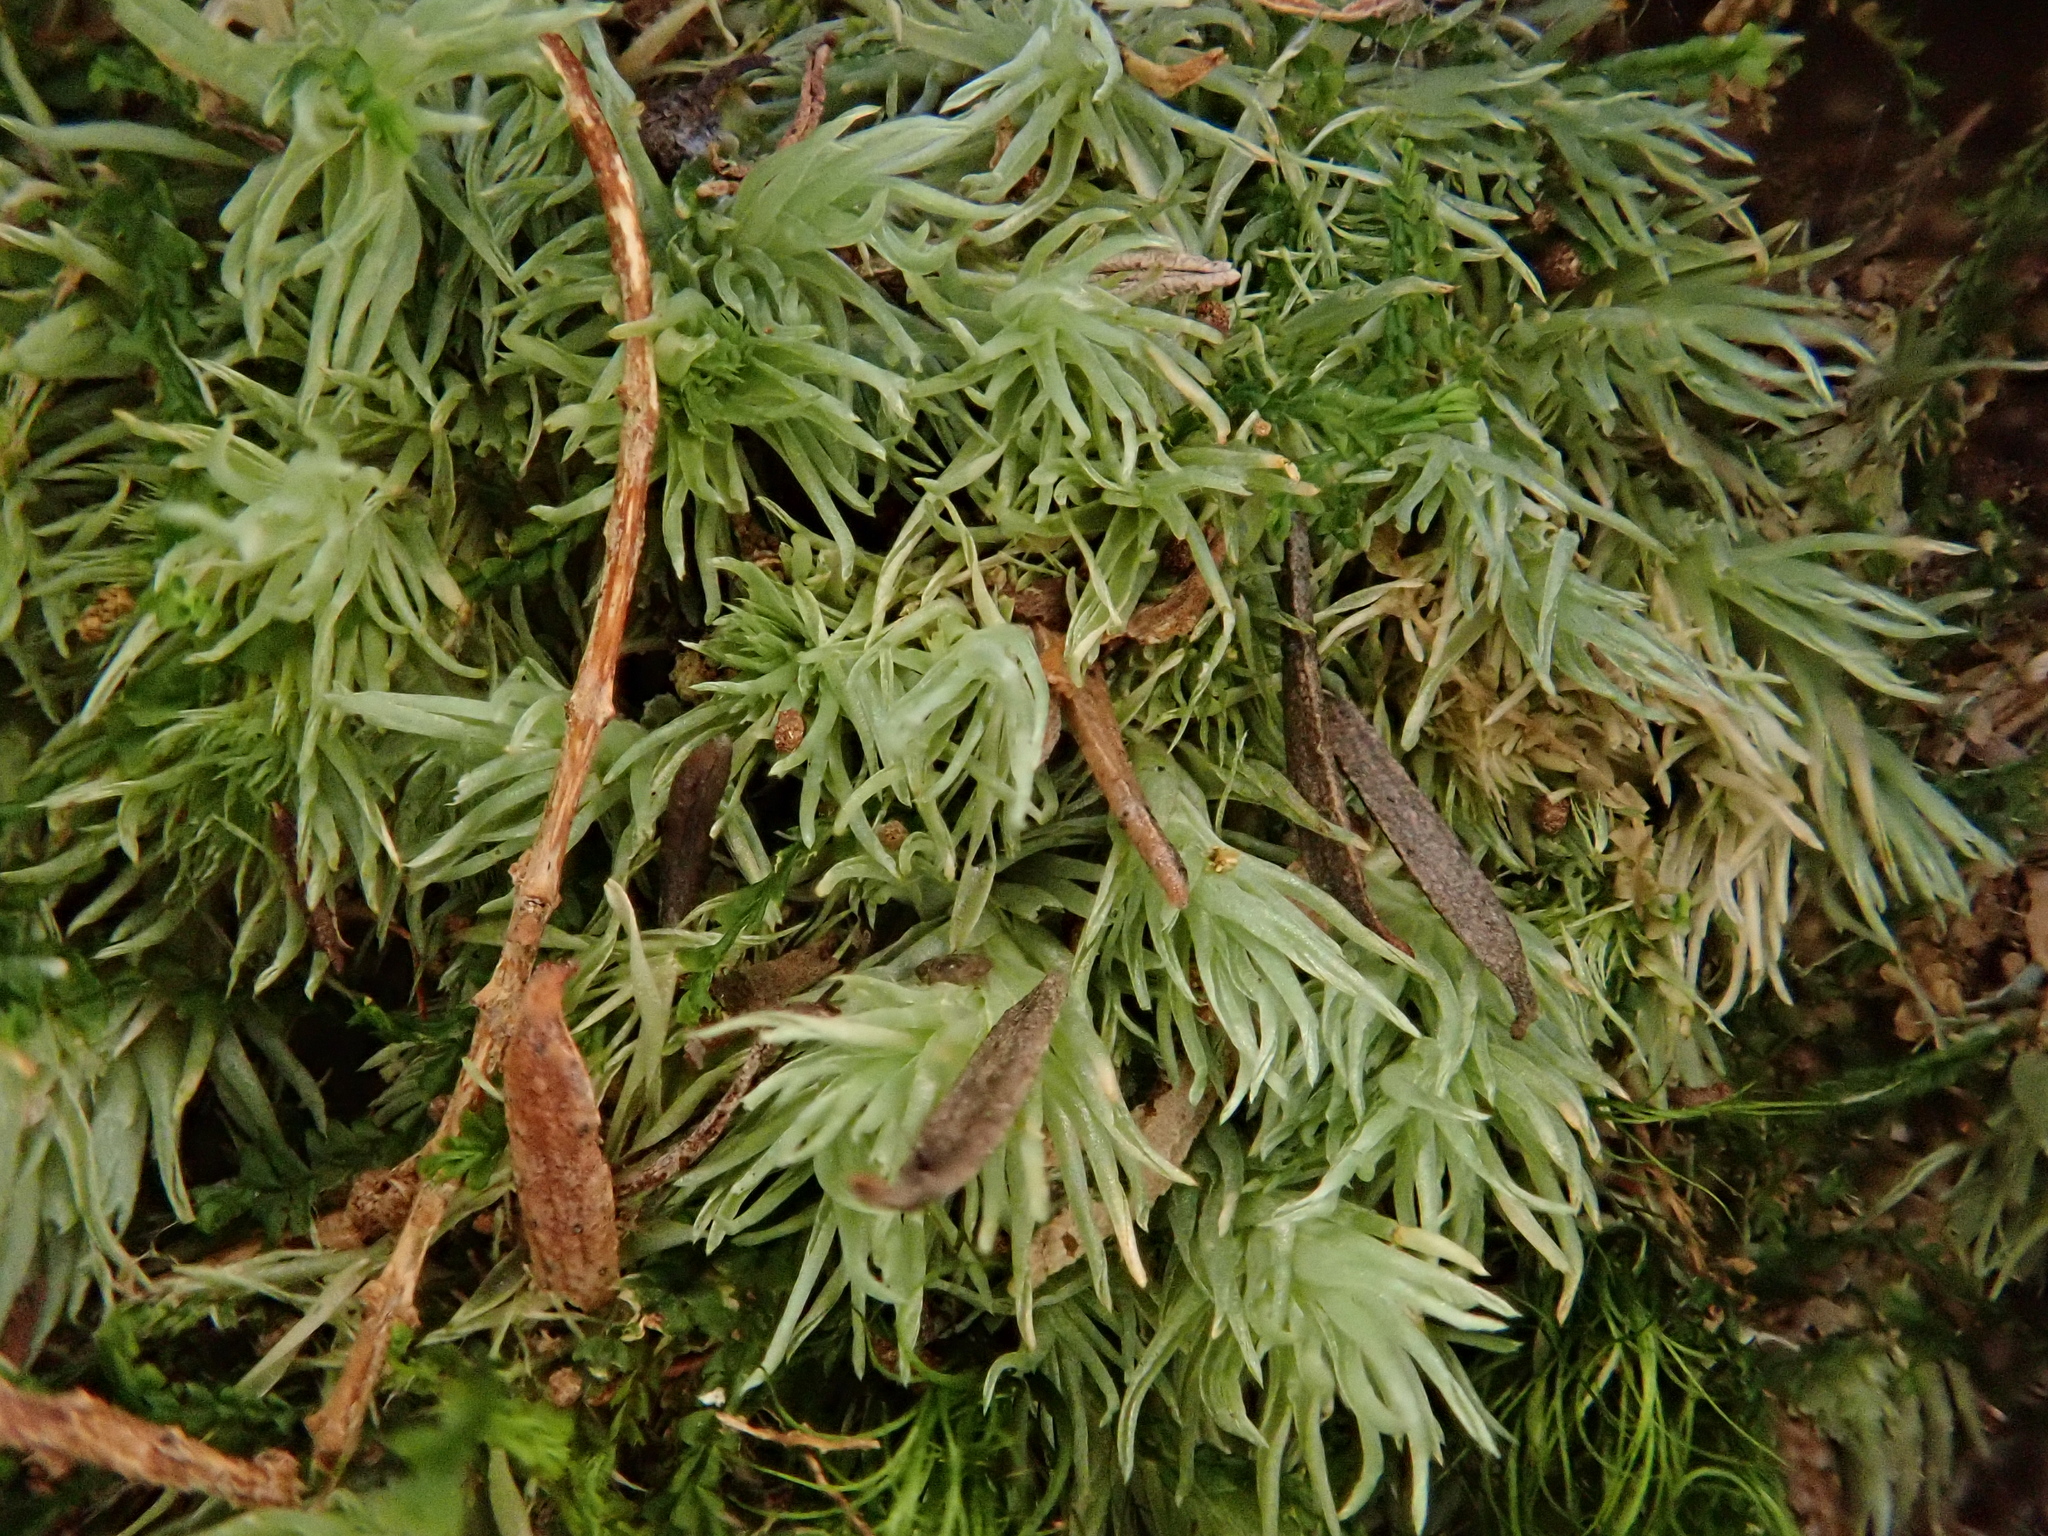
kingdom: Plantae
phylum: Bryophyta
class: Bryopsida
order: Dicranales
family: Leucobryaceae
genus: Leucobryum
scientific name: Leucobryum juniperoideum
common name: Smaller white-moss
